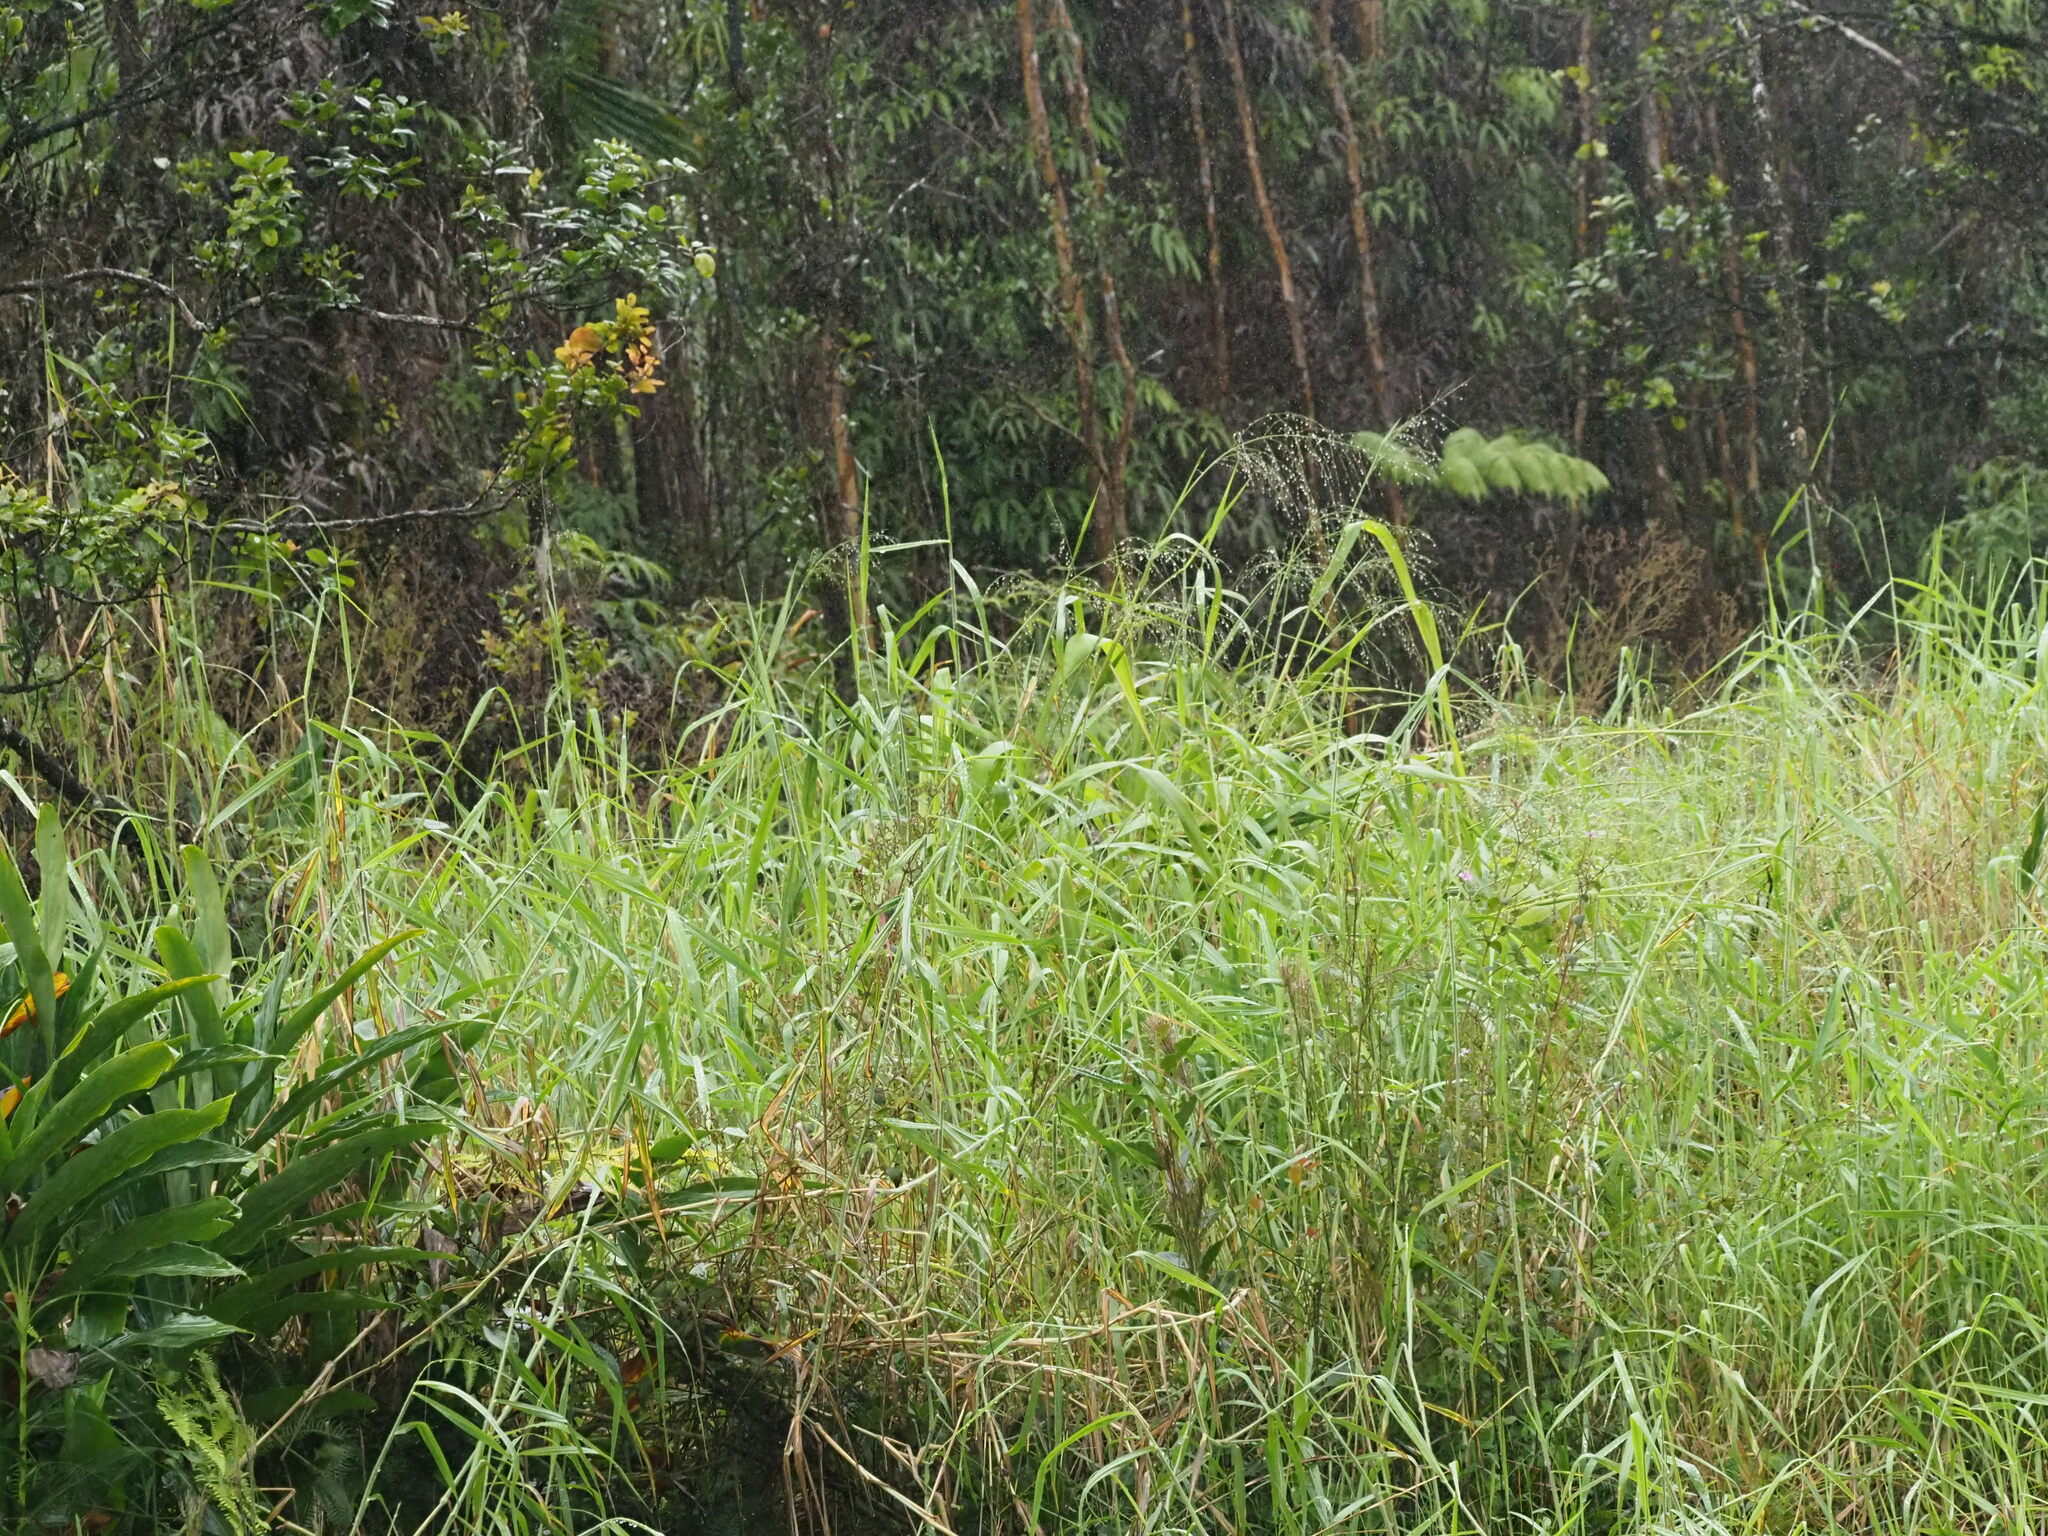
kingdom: Plantae
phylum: Tracheophyta
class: Liliopsida
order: Poales
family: Poaceae
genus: Megathyrsus
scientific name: Megathyrsus maximus
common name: Guineagrass
